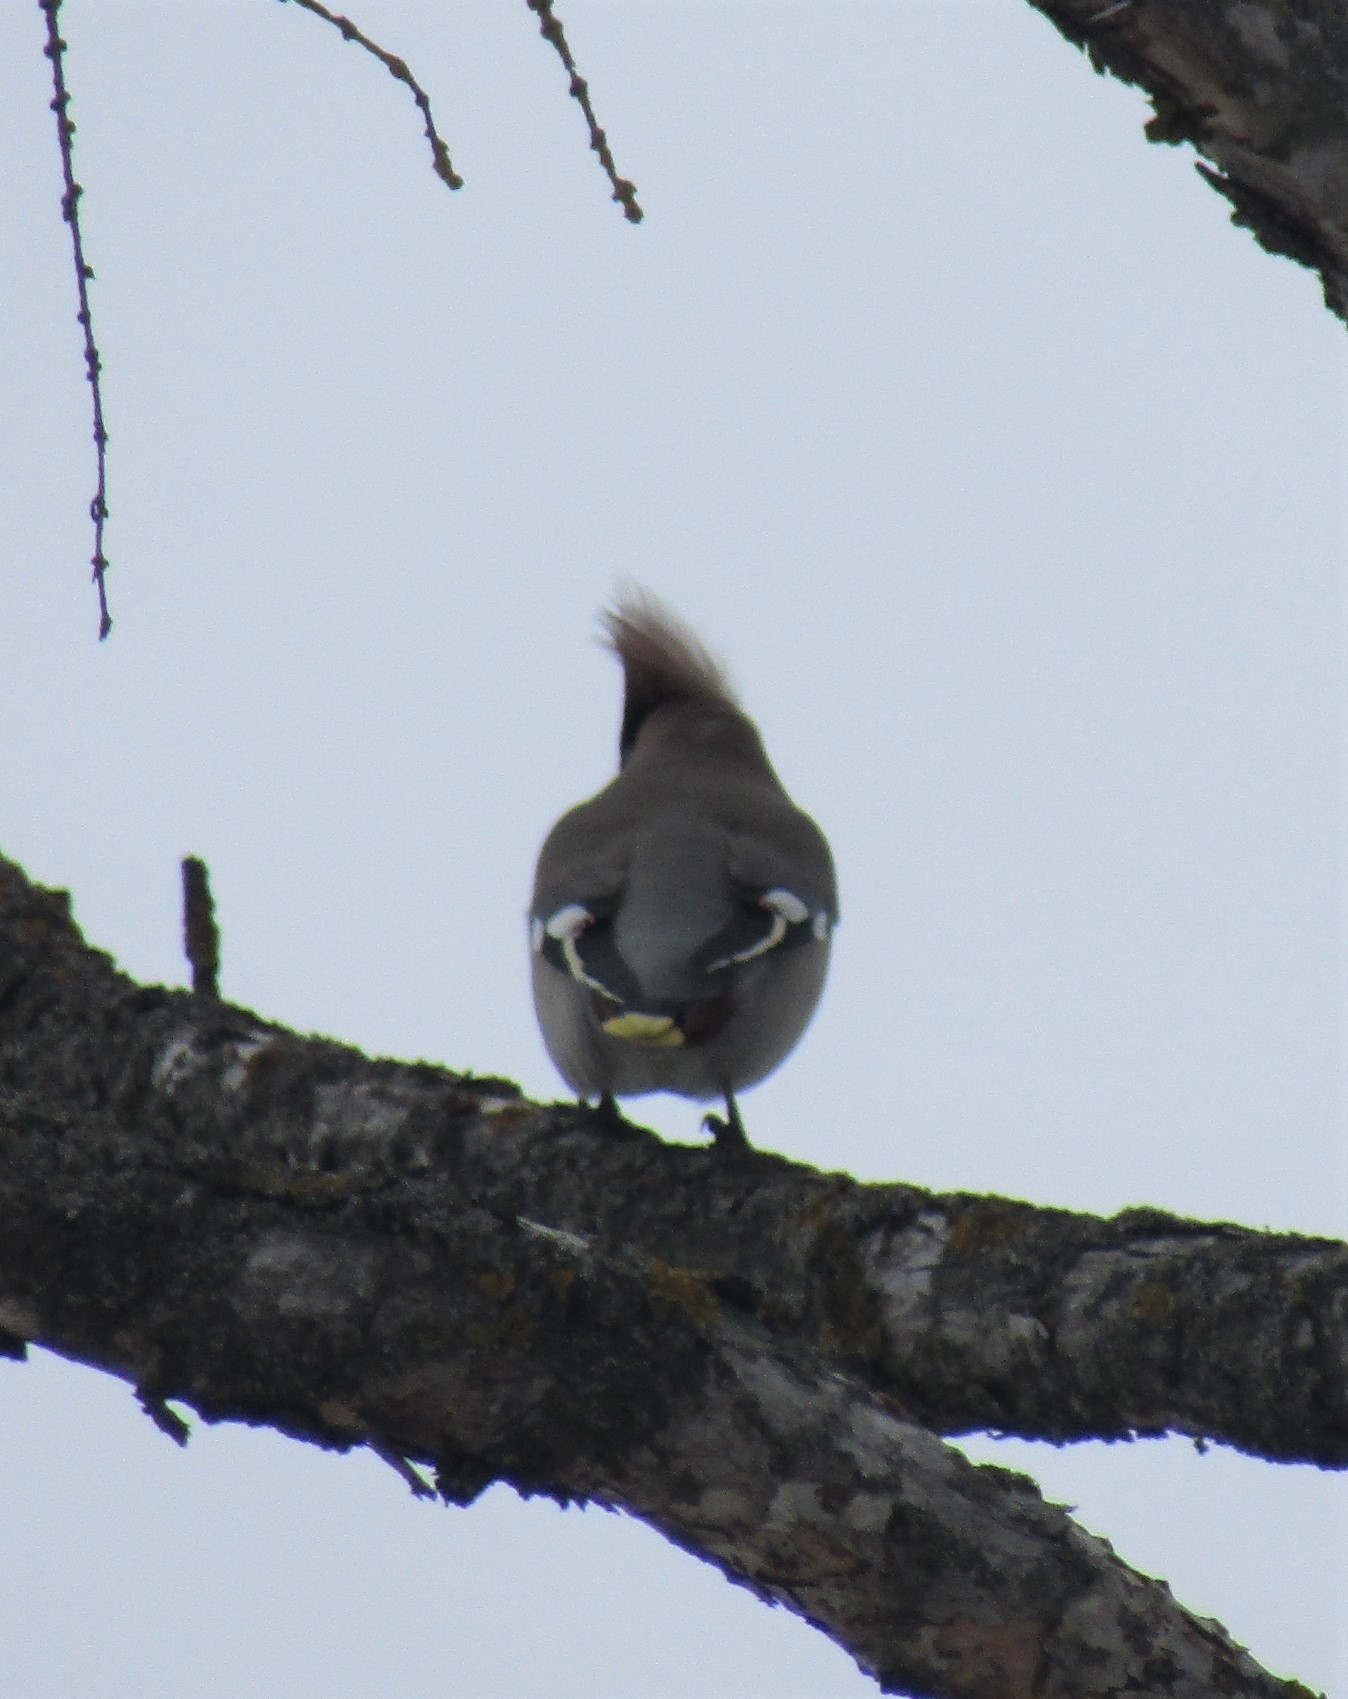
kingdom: Animalia
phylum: Chordata
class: Aves
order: Passeriformes
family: Bombycillidae
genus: Bombycilla
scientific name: Bombycilla garrulus
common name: Bohemian waxwing
